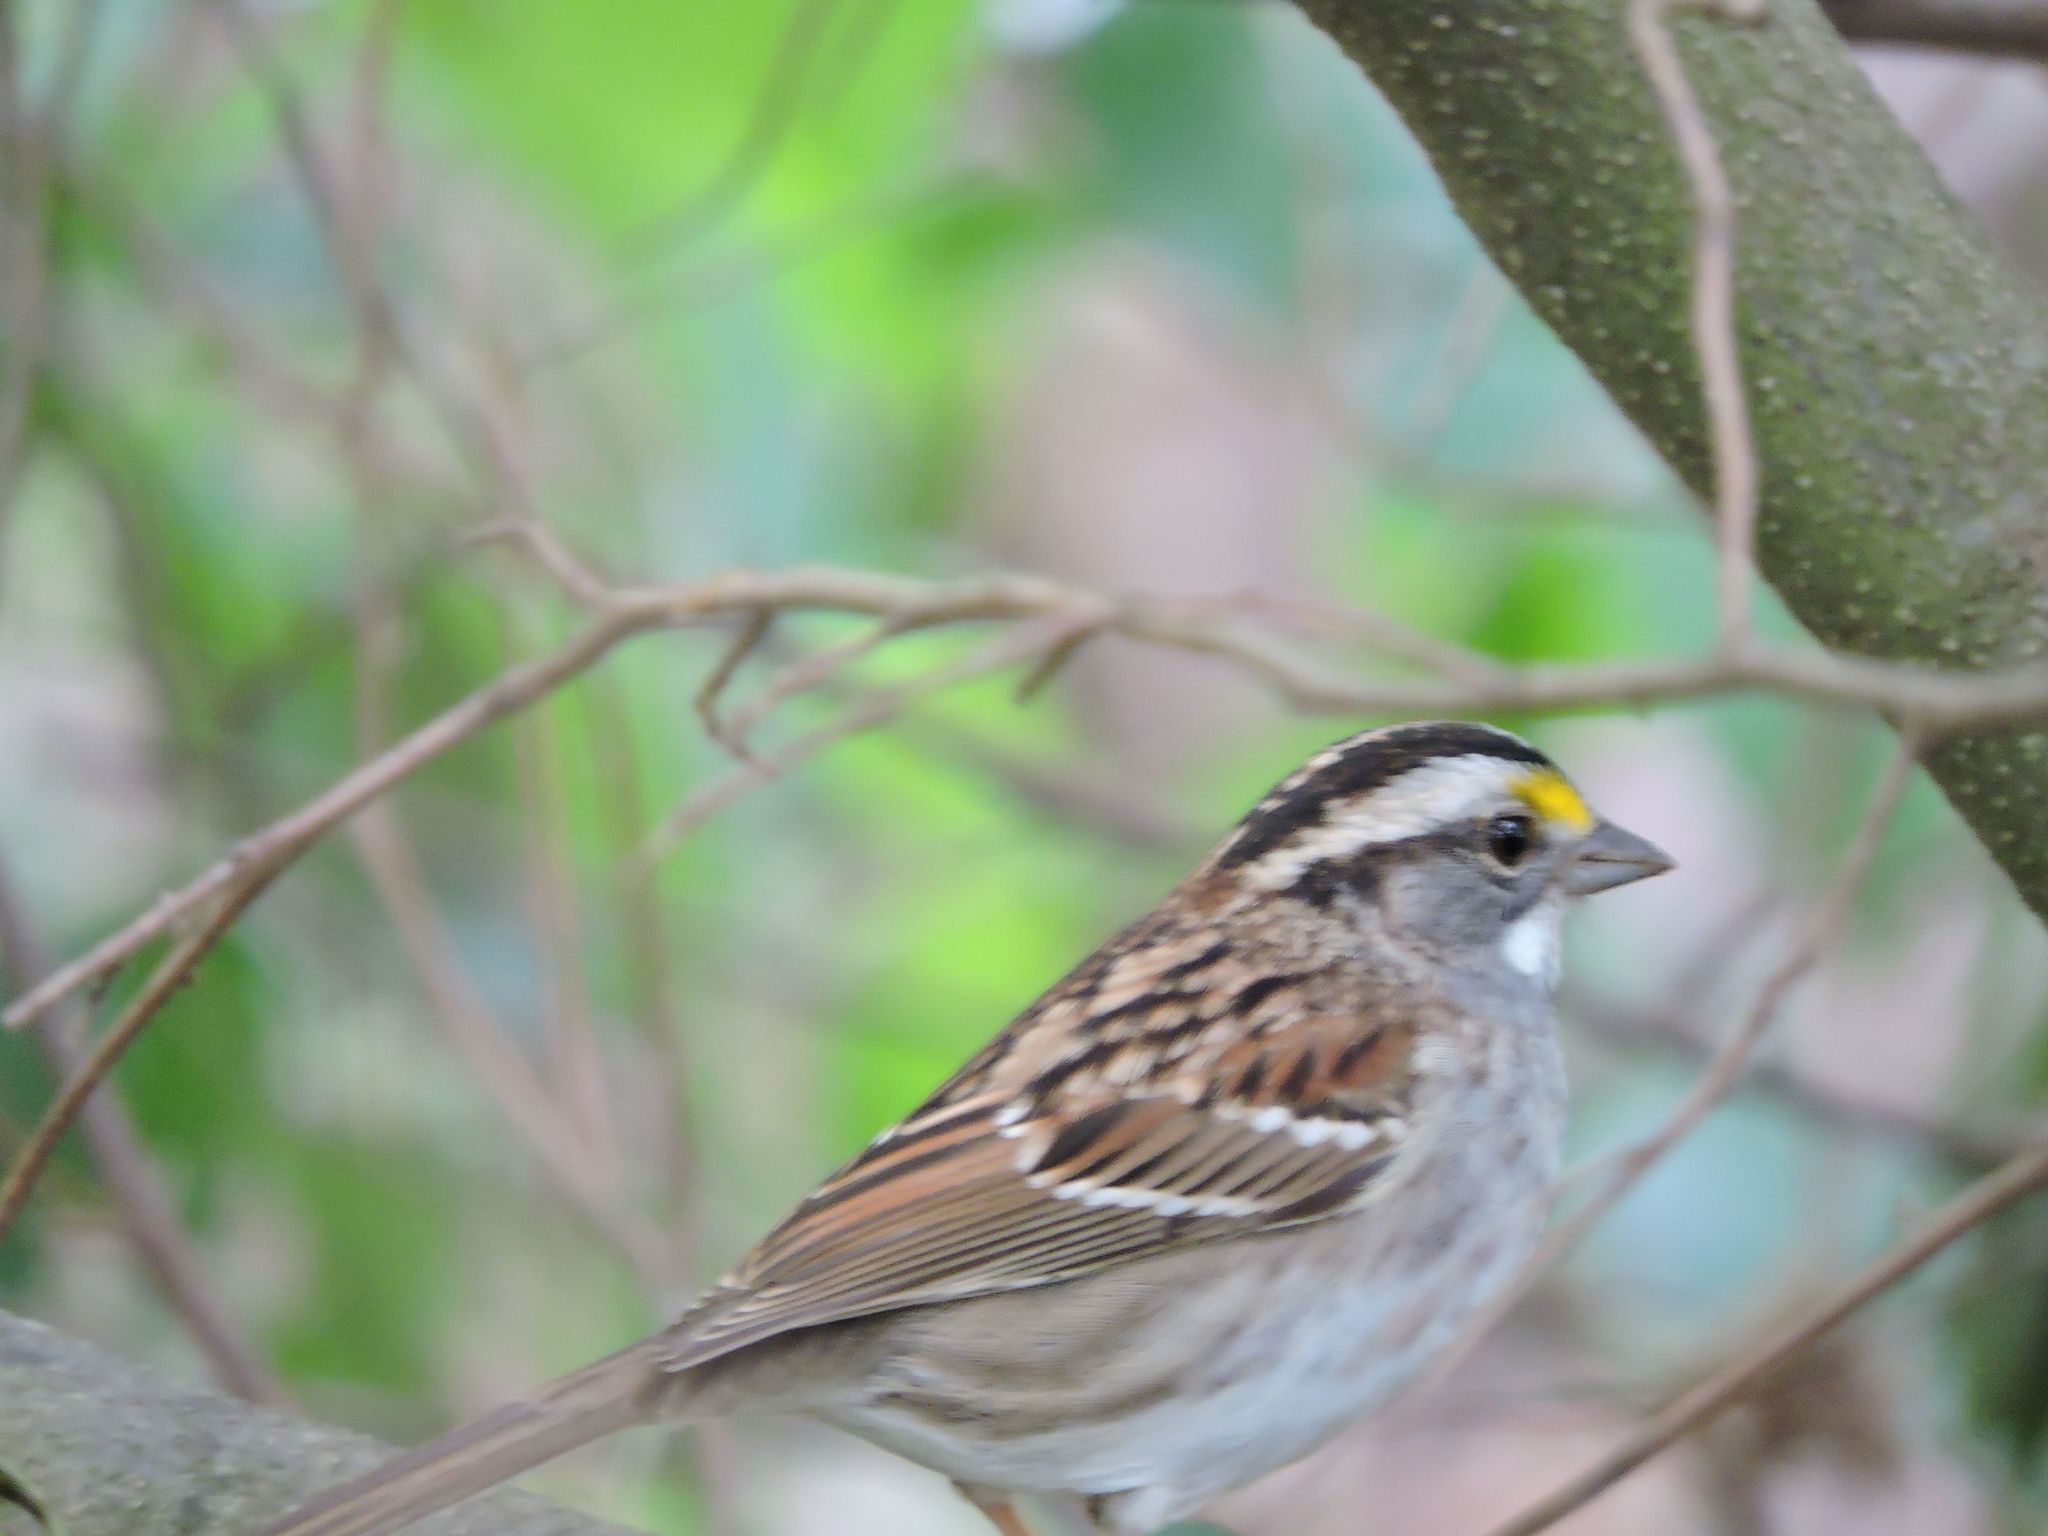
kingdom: Animalia
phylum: Chordata
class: Aves
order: Passeriformes
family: Passerellidae
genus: Zonotrichia
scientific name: Zonotrichia albicollis
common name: White-throated sparrow
